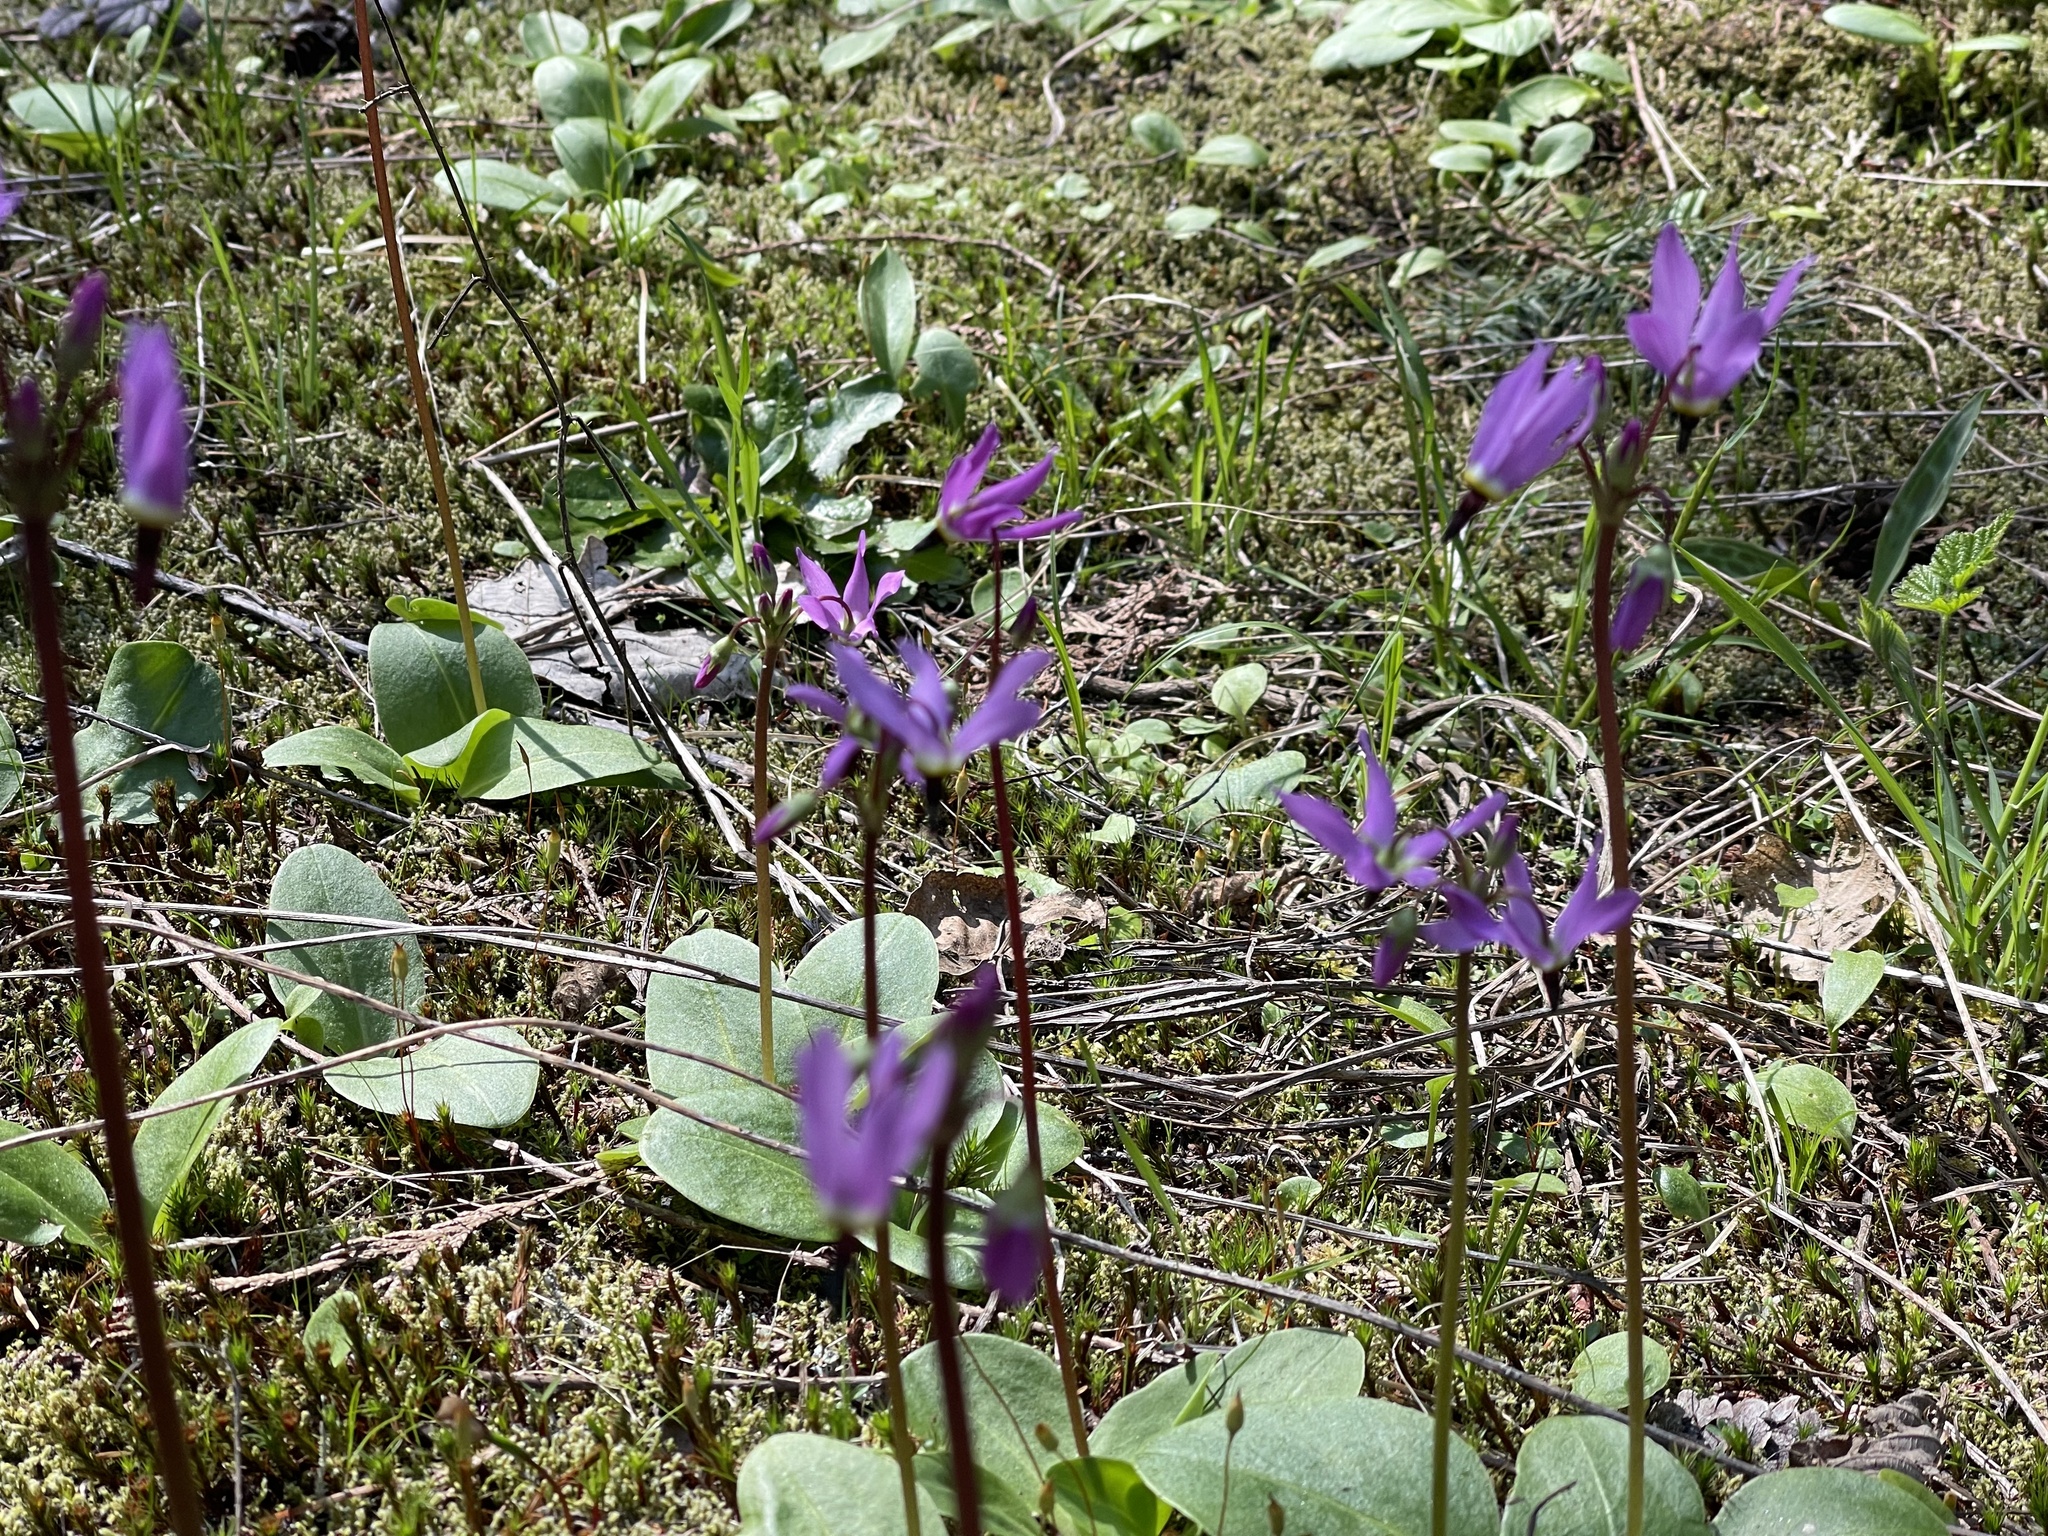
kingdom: Plantae
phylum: Tracheophyta
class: Magnoliopsida
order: Ericales
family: Primulaceae
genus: Dodecatheon
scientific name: Dodecatheon hendersonii
